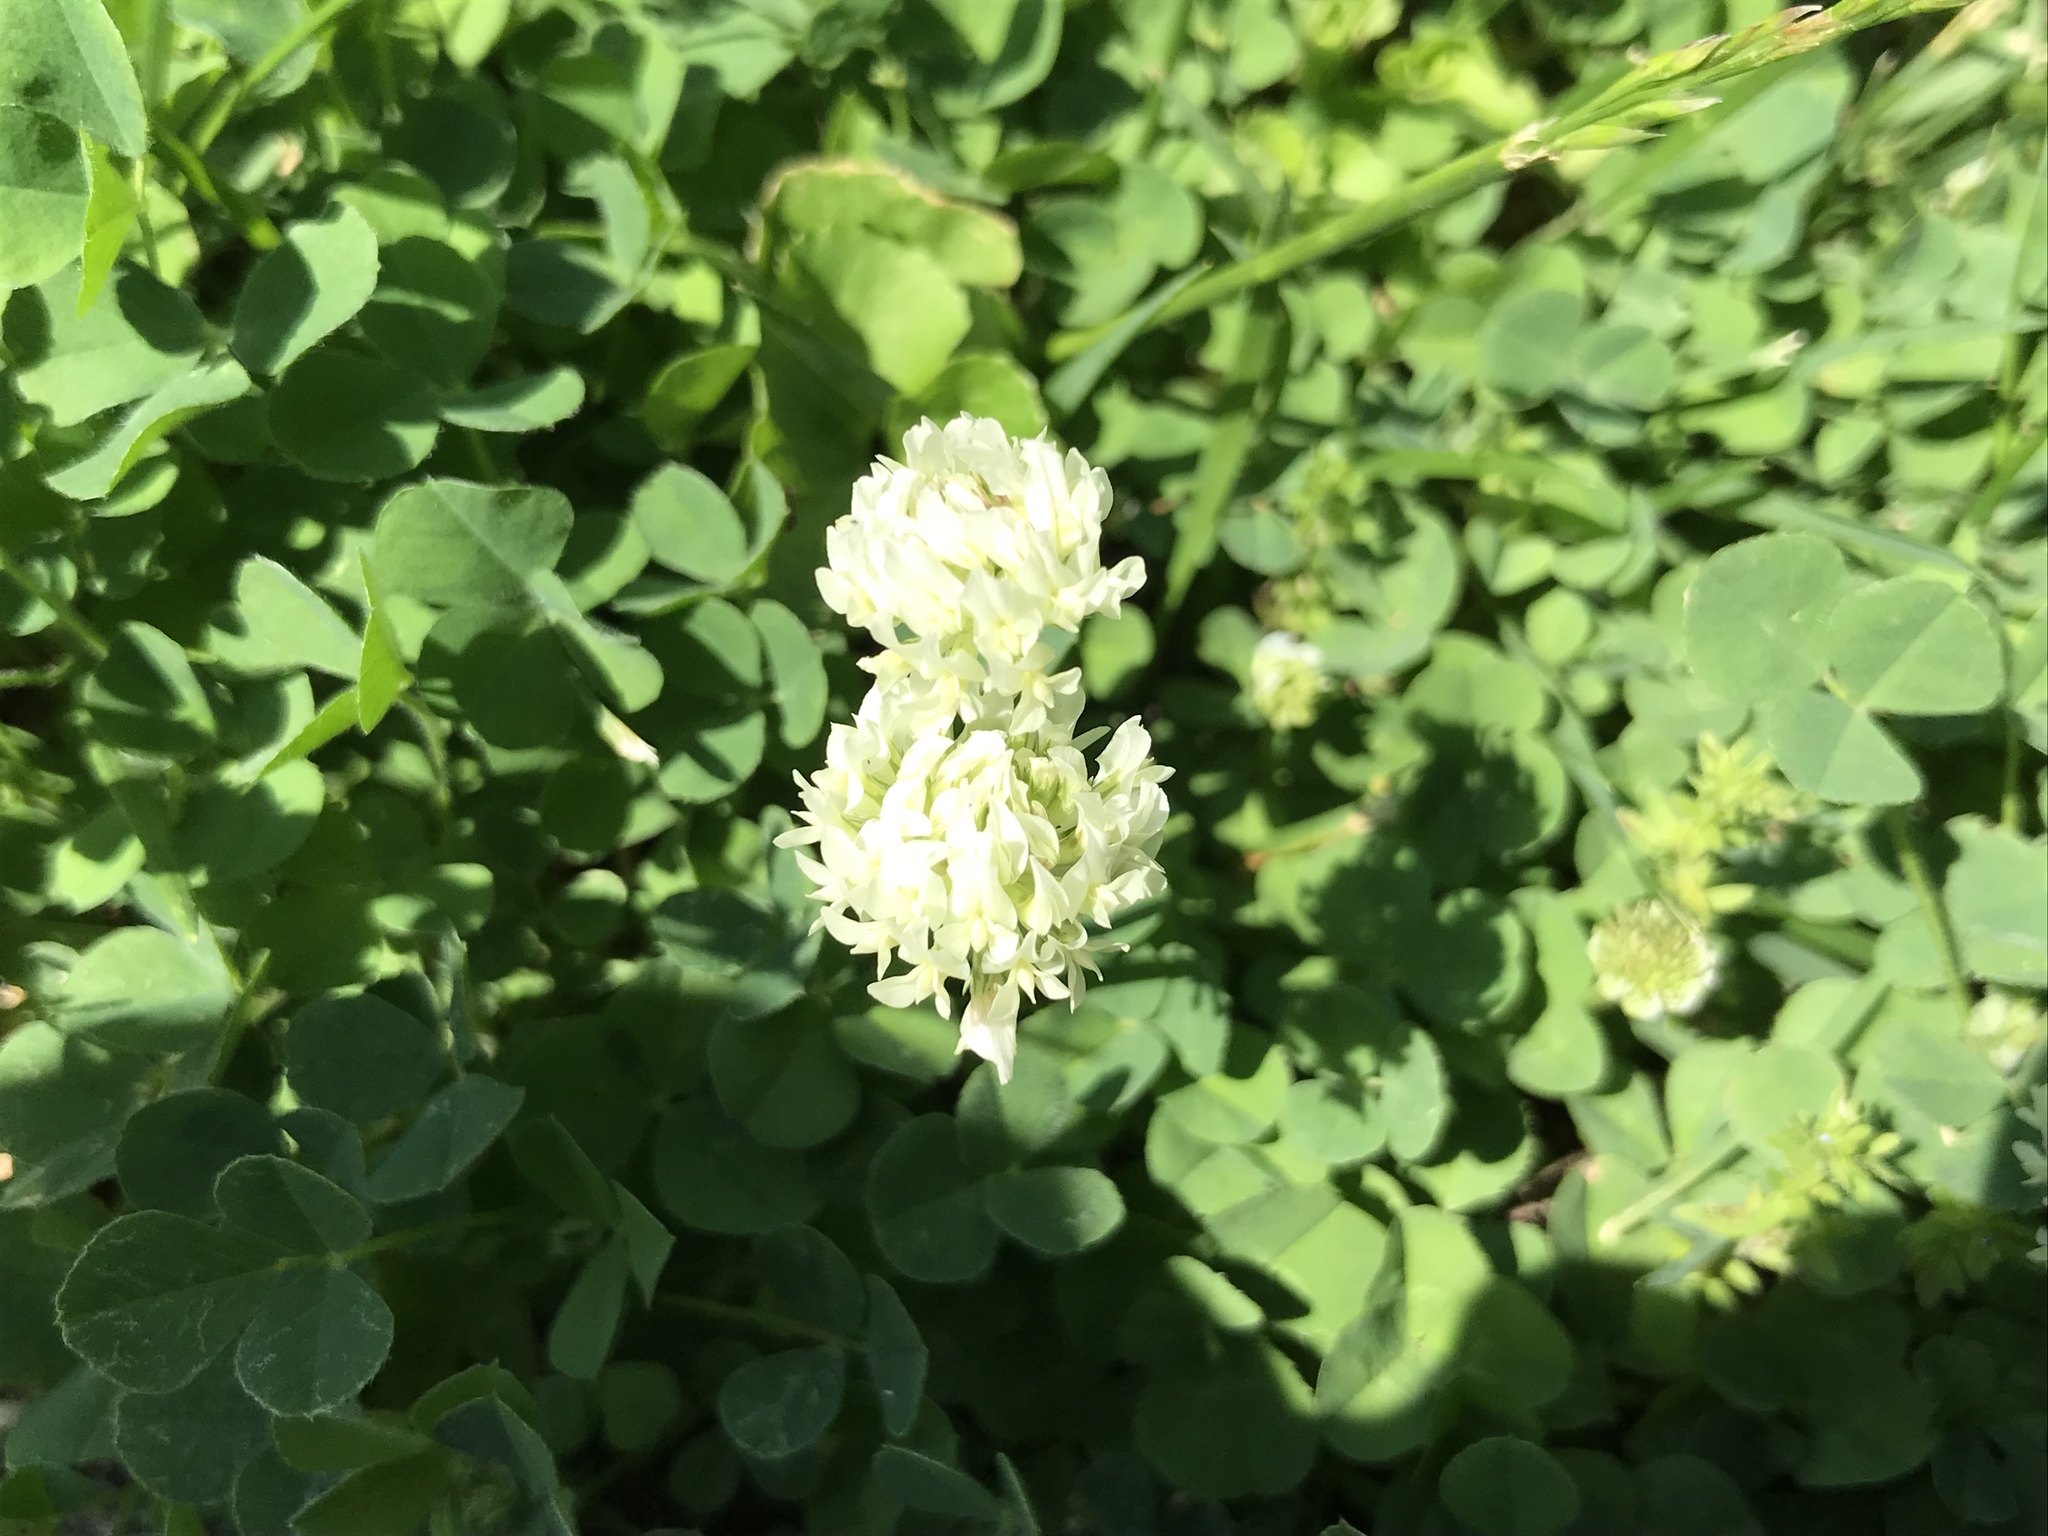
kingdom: Plantae
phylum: Tracheophyta
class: Magnoliopsida
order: Fabales
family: Fabaceae
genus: Trifolium
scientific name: Trifolium repens
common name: White clover
